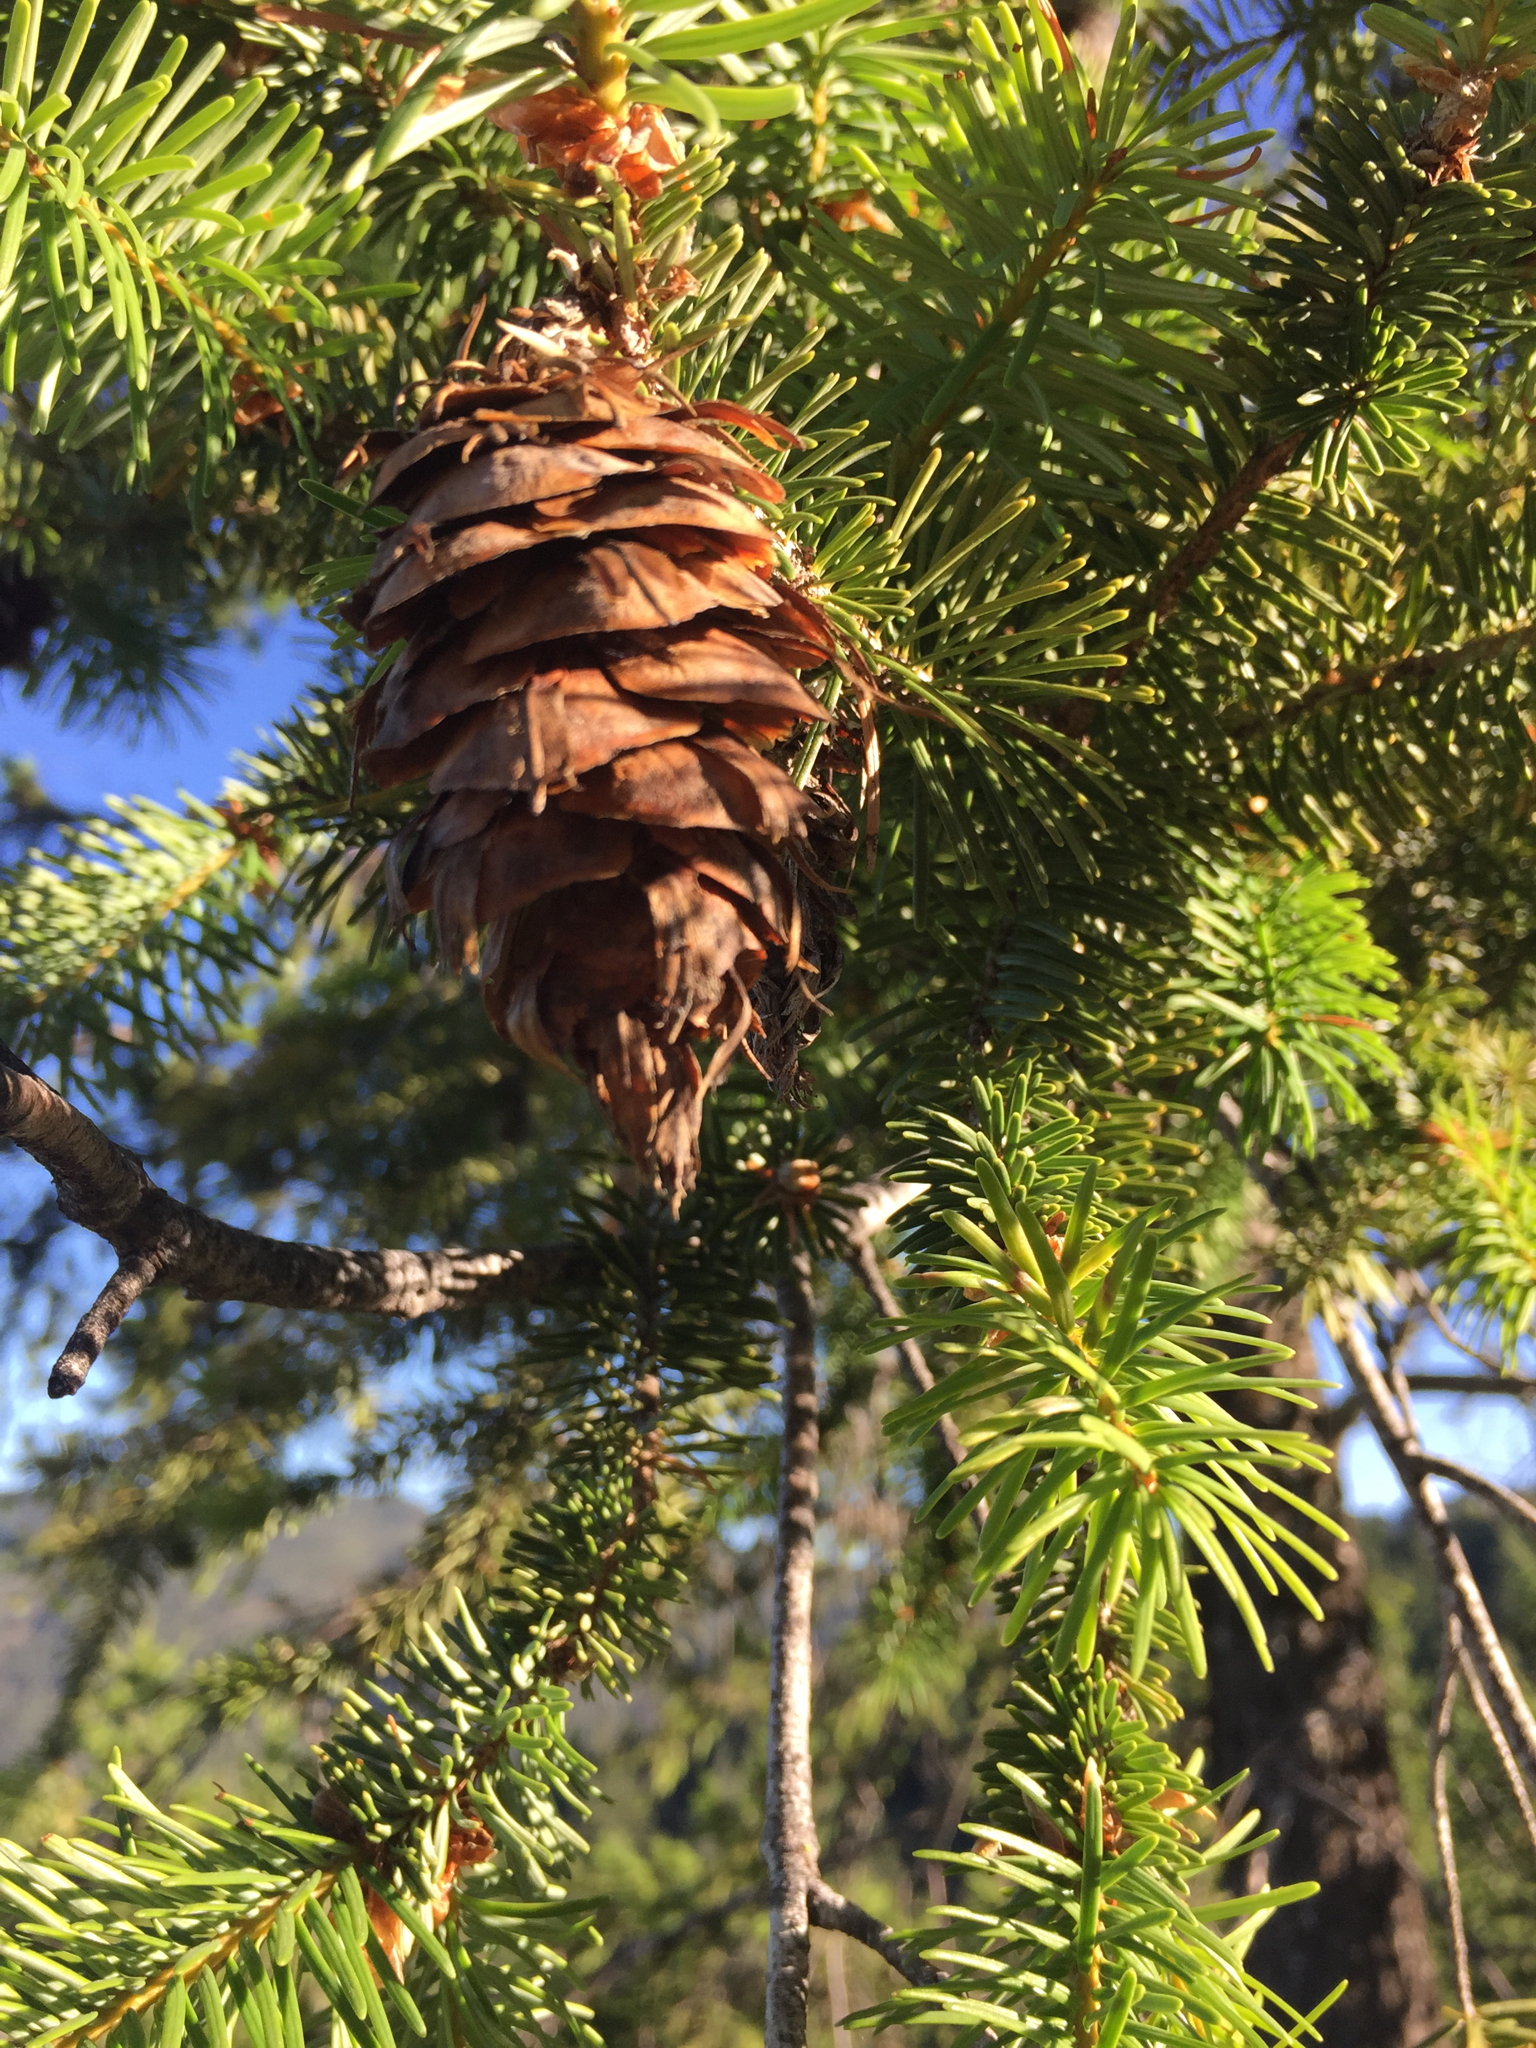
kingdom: Plantae
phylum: Tracheophyta
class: Pinopsida
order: Pinales
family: Pinaceae
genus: Pseudotsuga
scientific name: Pseudotsuga menziesii
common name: Douglas fir
